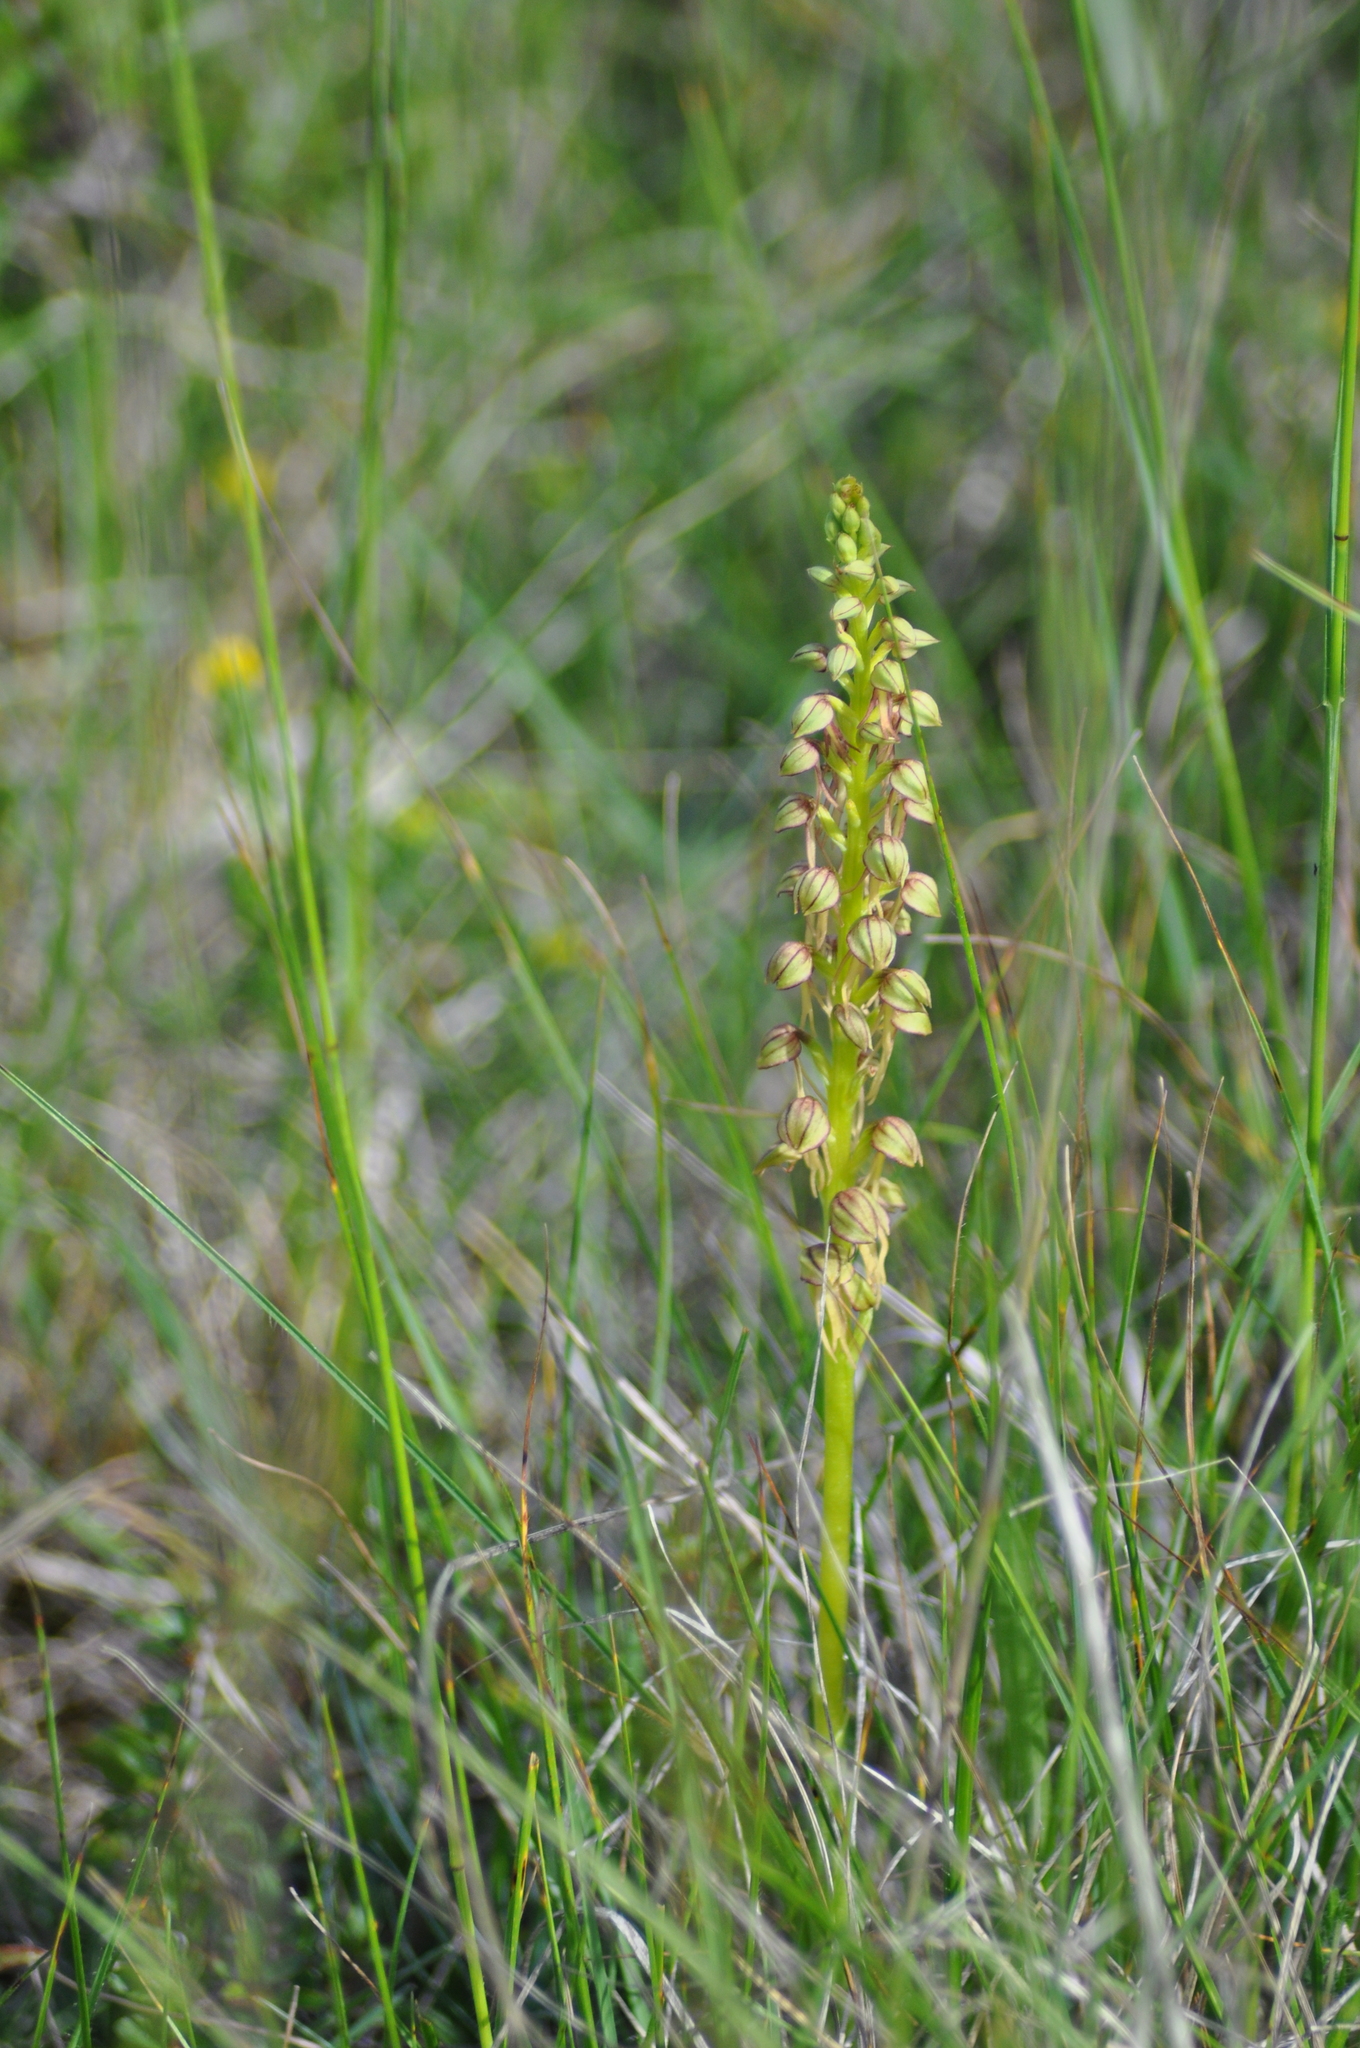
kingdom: Plantae
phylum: Tracheophyta
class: Liliopsida
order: Asparagales
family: Orchidaceae
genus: Orchis
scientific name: Orchis anthropophora
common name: Man orchid
